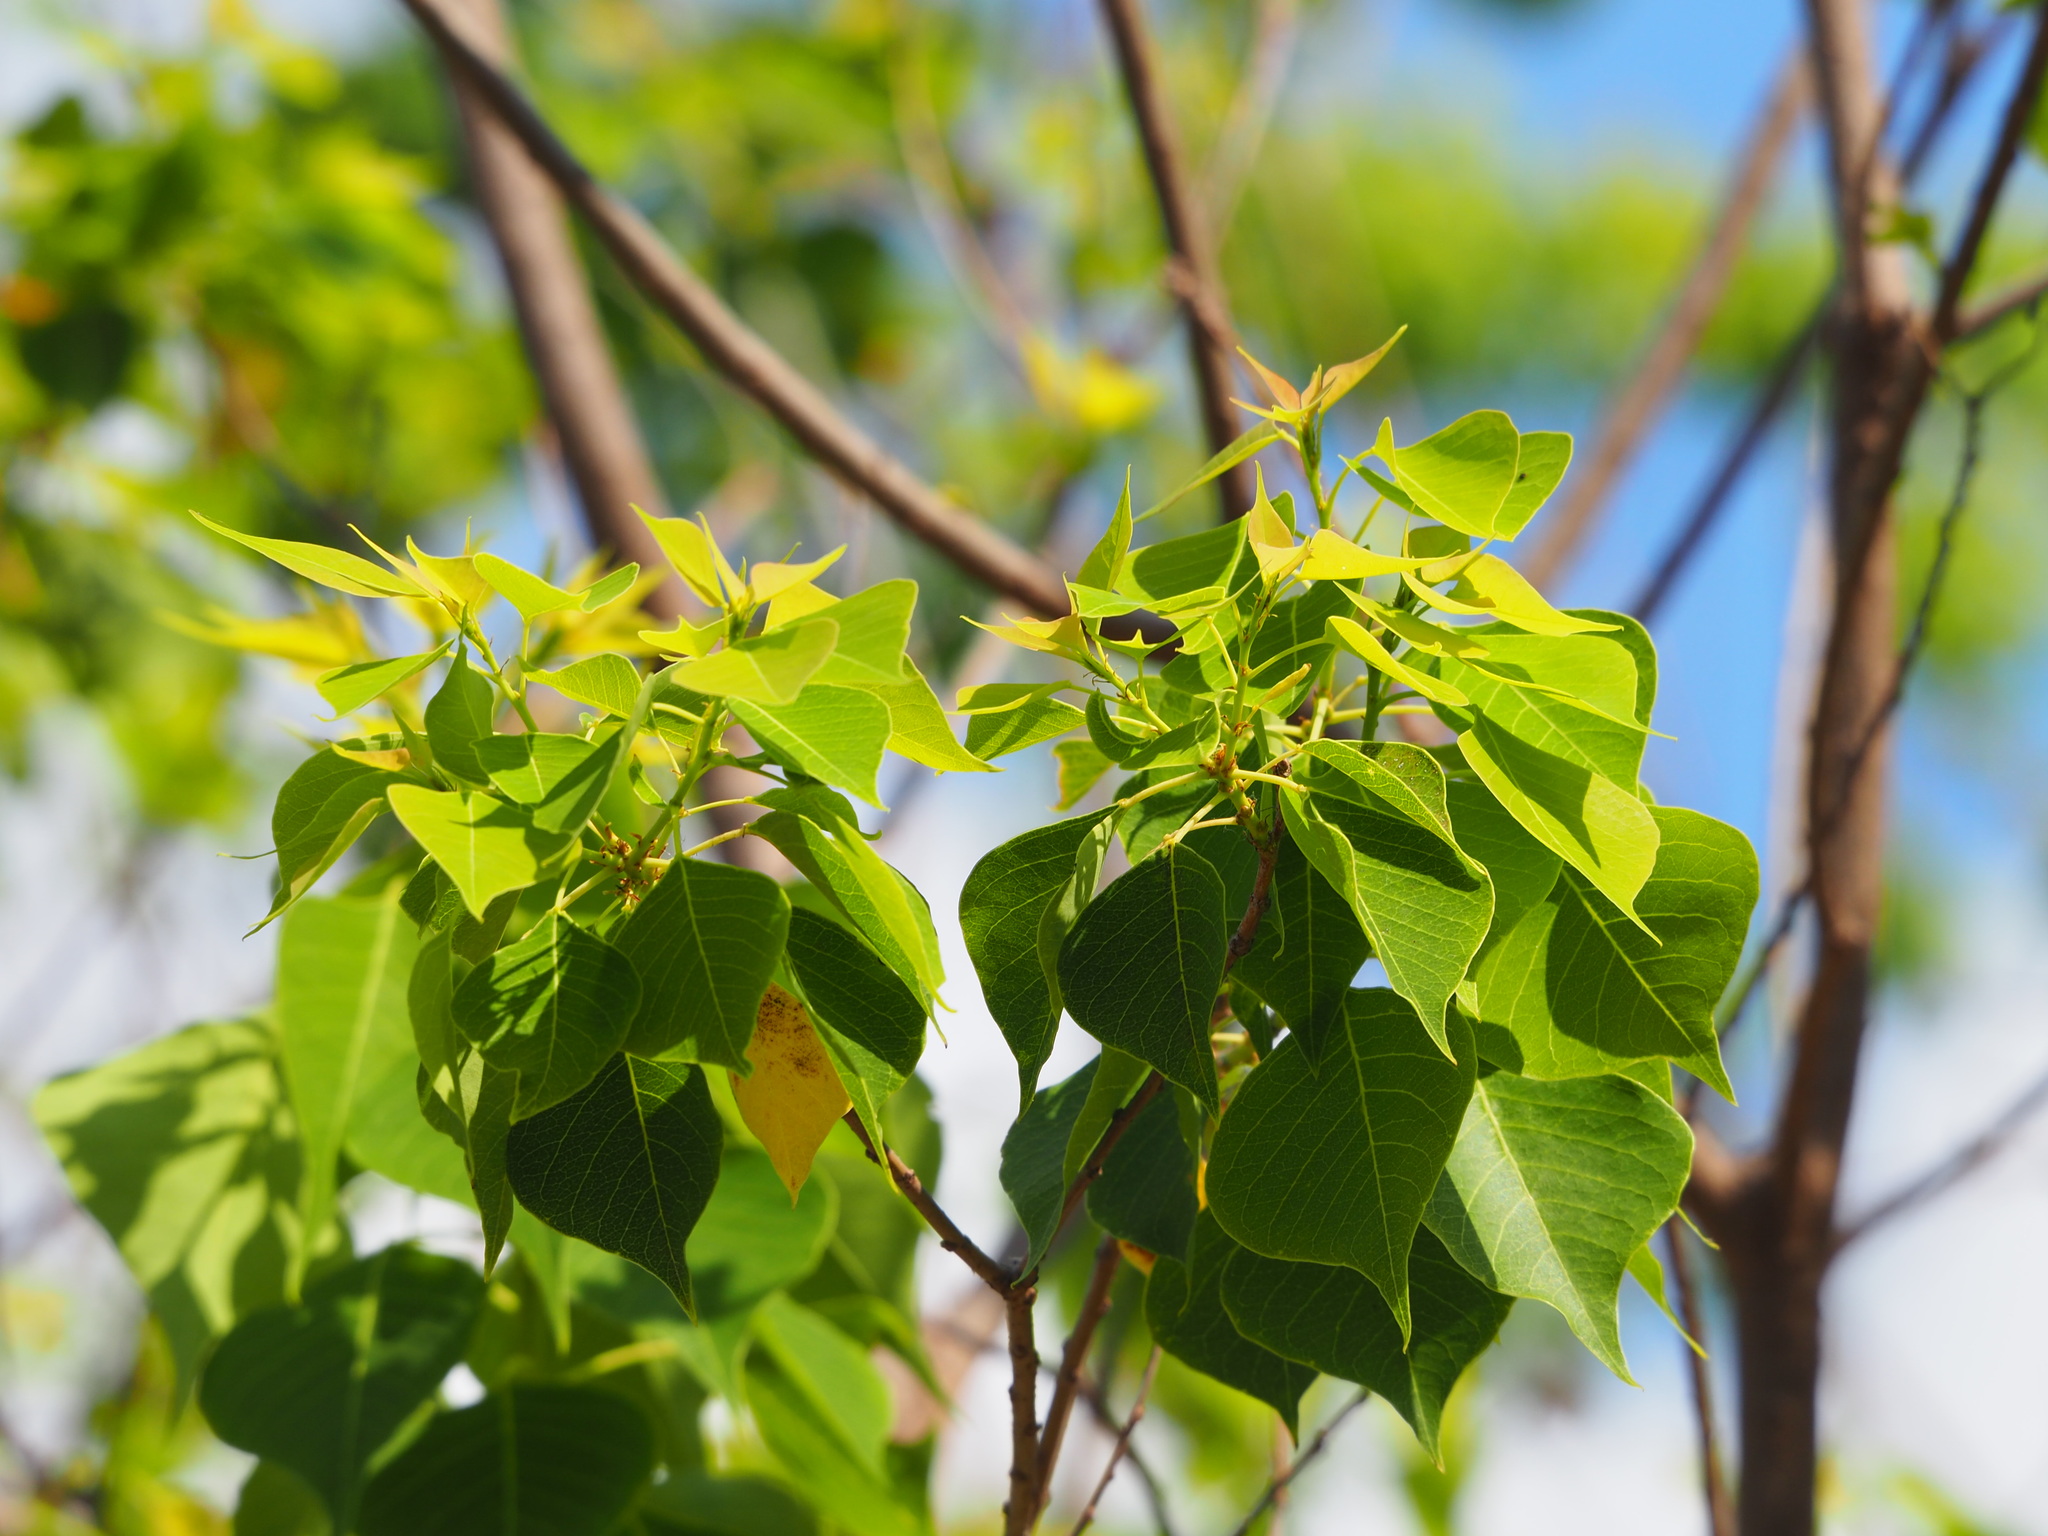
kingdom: Plantae
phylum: Tracheophyta
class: Magnoliopsida
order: Malpighiales
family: Euphorbiaceae
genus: Triadica
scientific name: Triadica sebifera
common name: Chinese tallow
